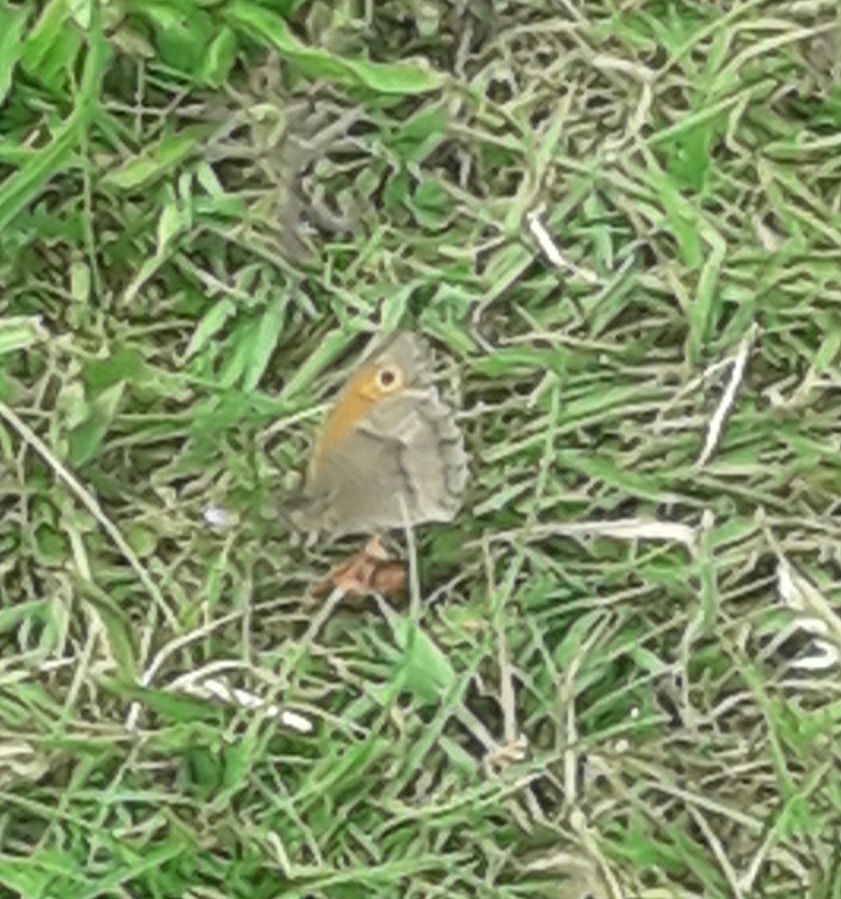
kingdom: Animalia
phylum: Arthropoda
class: Insecta
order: Lepidoptera
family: Nymphalidae
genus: Maniola
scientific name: Maniola jurtina
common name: Meadow brown
